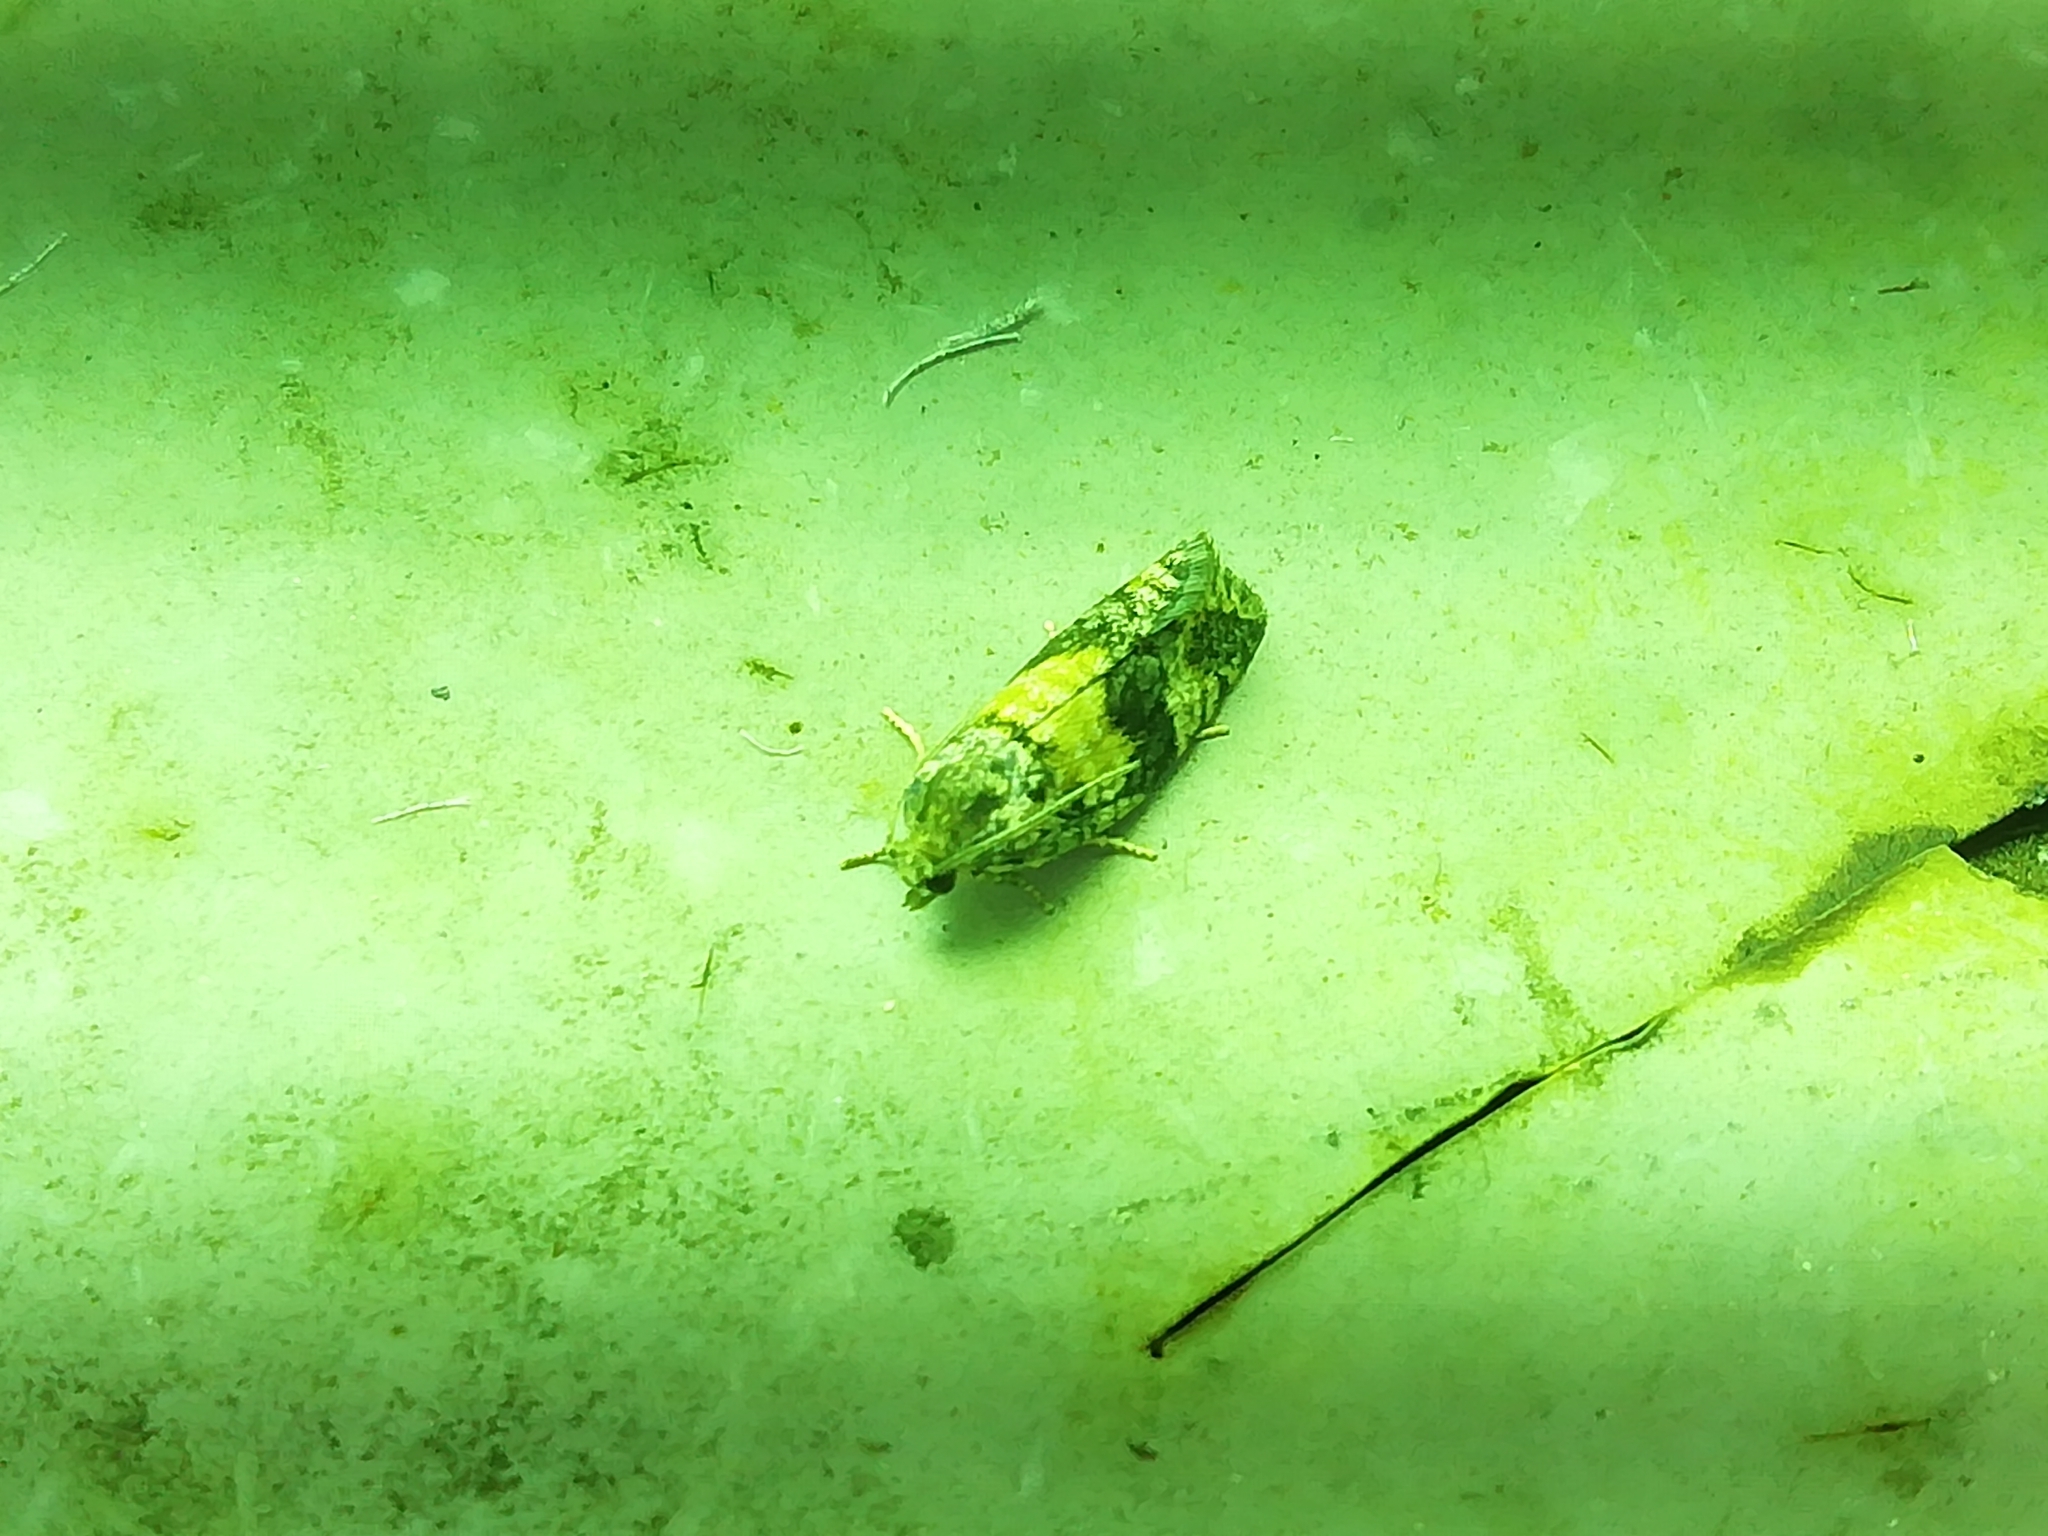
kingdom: Animalia
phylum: Arthropoda
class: Insecta
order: Lepidoptera
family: Tortricidae
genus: Ptycholomoides
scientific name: Ptycholomoides aeriferana
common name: Yellow larch tortrix
